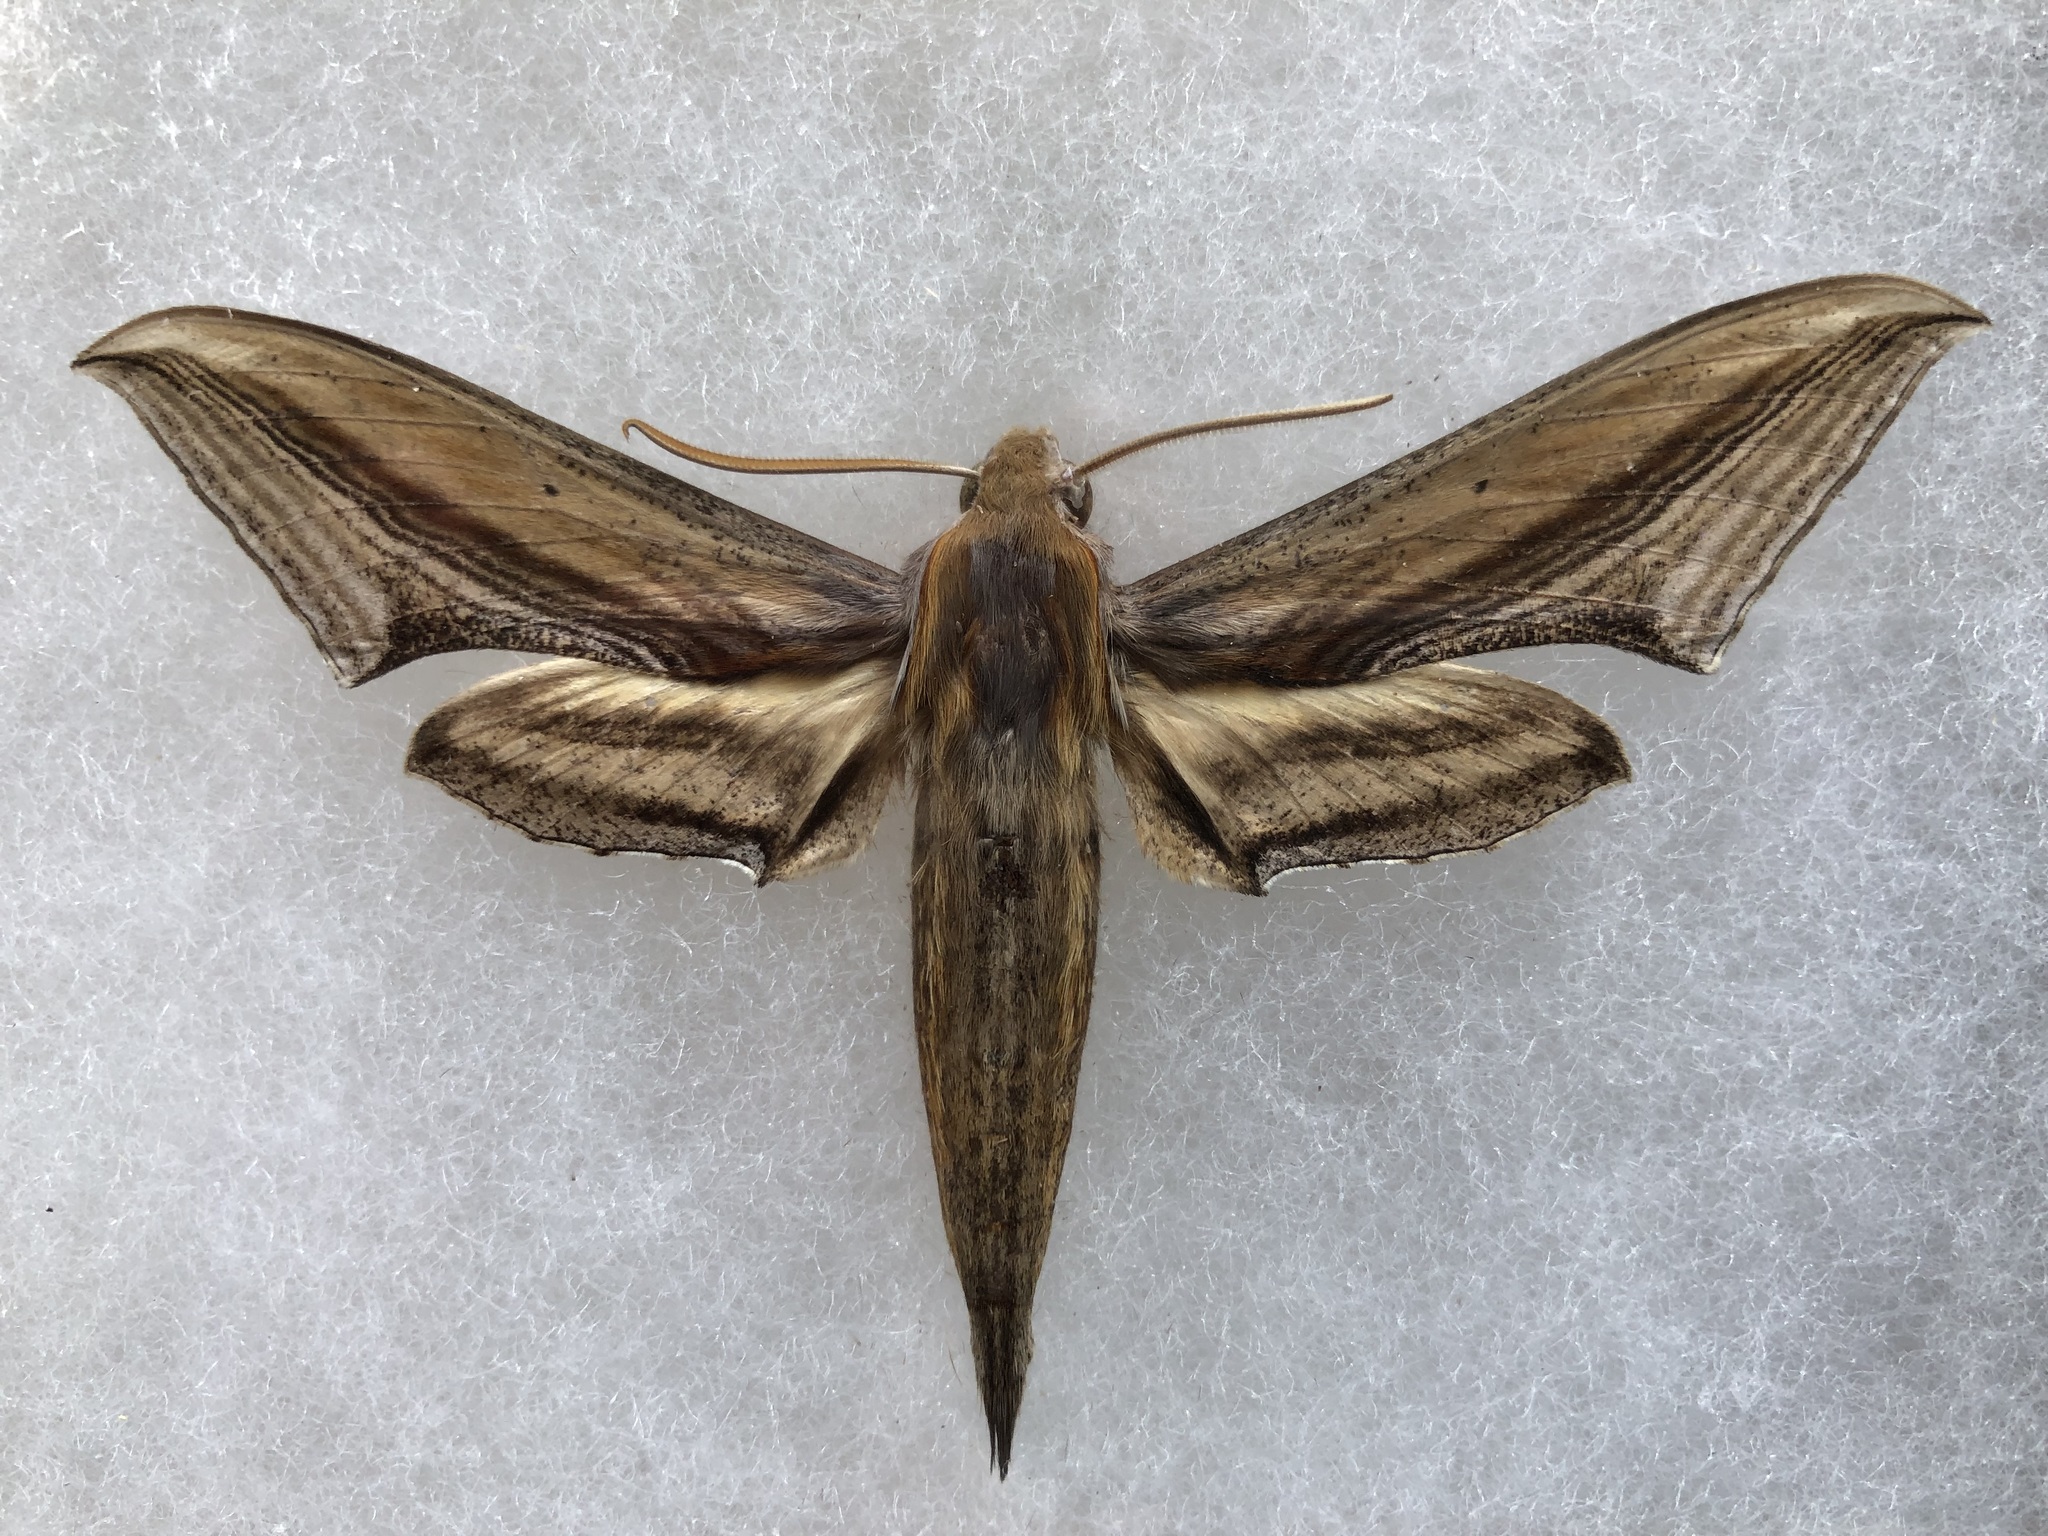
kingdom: Animalia
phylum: Arthropoda
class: Insecta
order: Lepidoptera
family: Sphingidae
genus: Xylophanes
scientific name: Xylophanes falco
